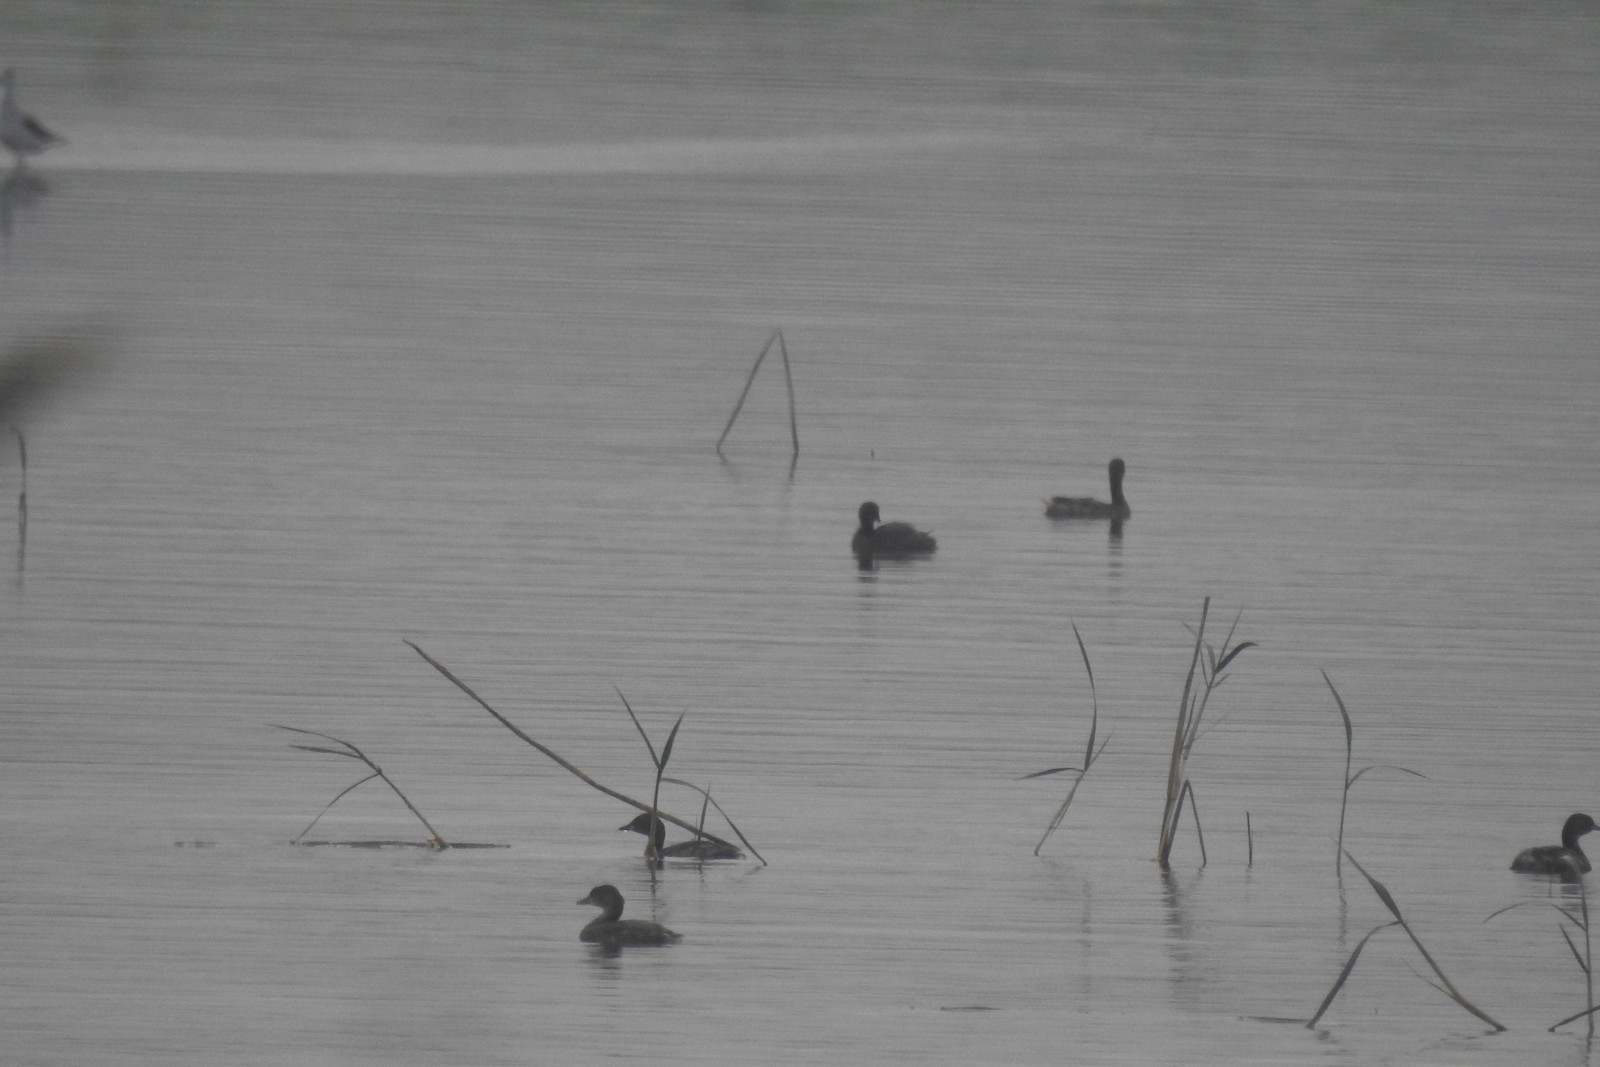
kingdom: Animalia
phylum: Chordata
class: Aves
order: Podicipediformes
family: Podicipedidae
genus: Tachybaptus
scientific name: Tachybaptus ruficollis
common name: Little grebe
